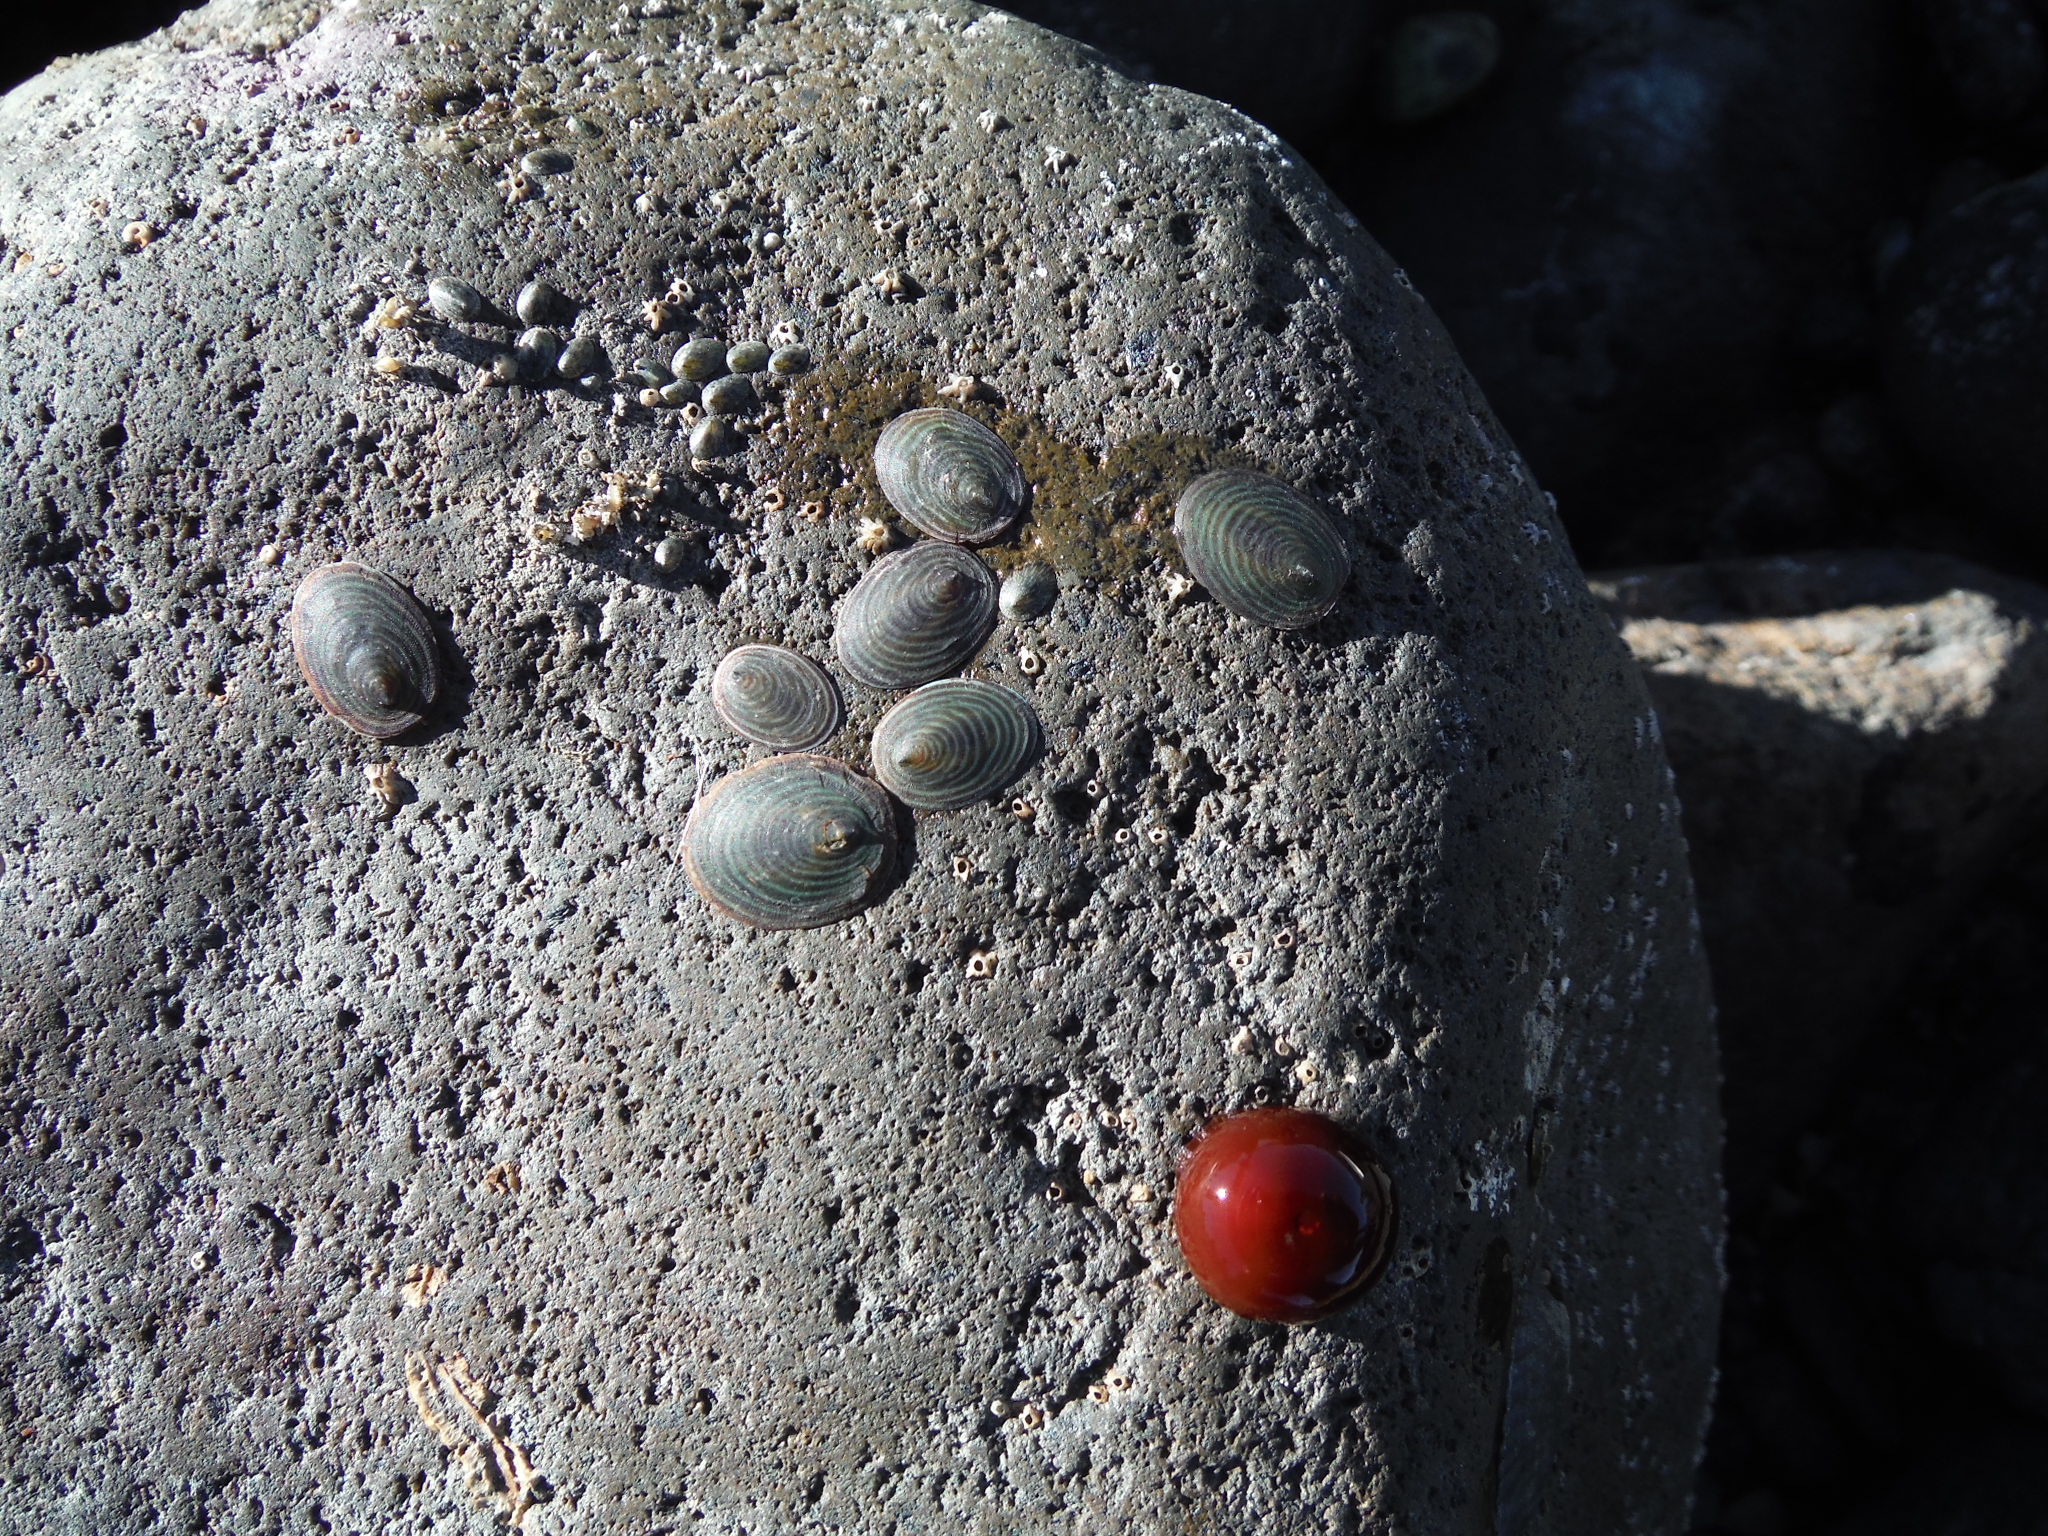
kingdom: Animalia
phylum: Mollusca
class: Gastropoda
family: Lottiidae
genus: Atalacmea
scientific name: Atalacmea fragilis
